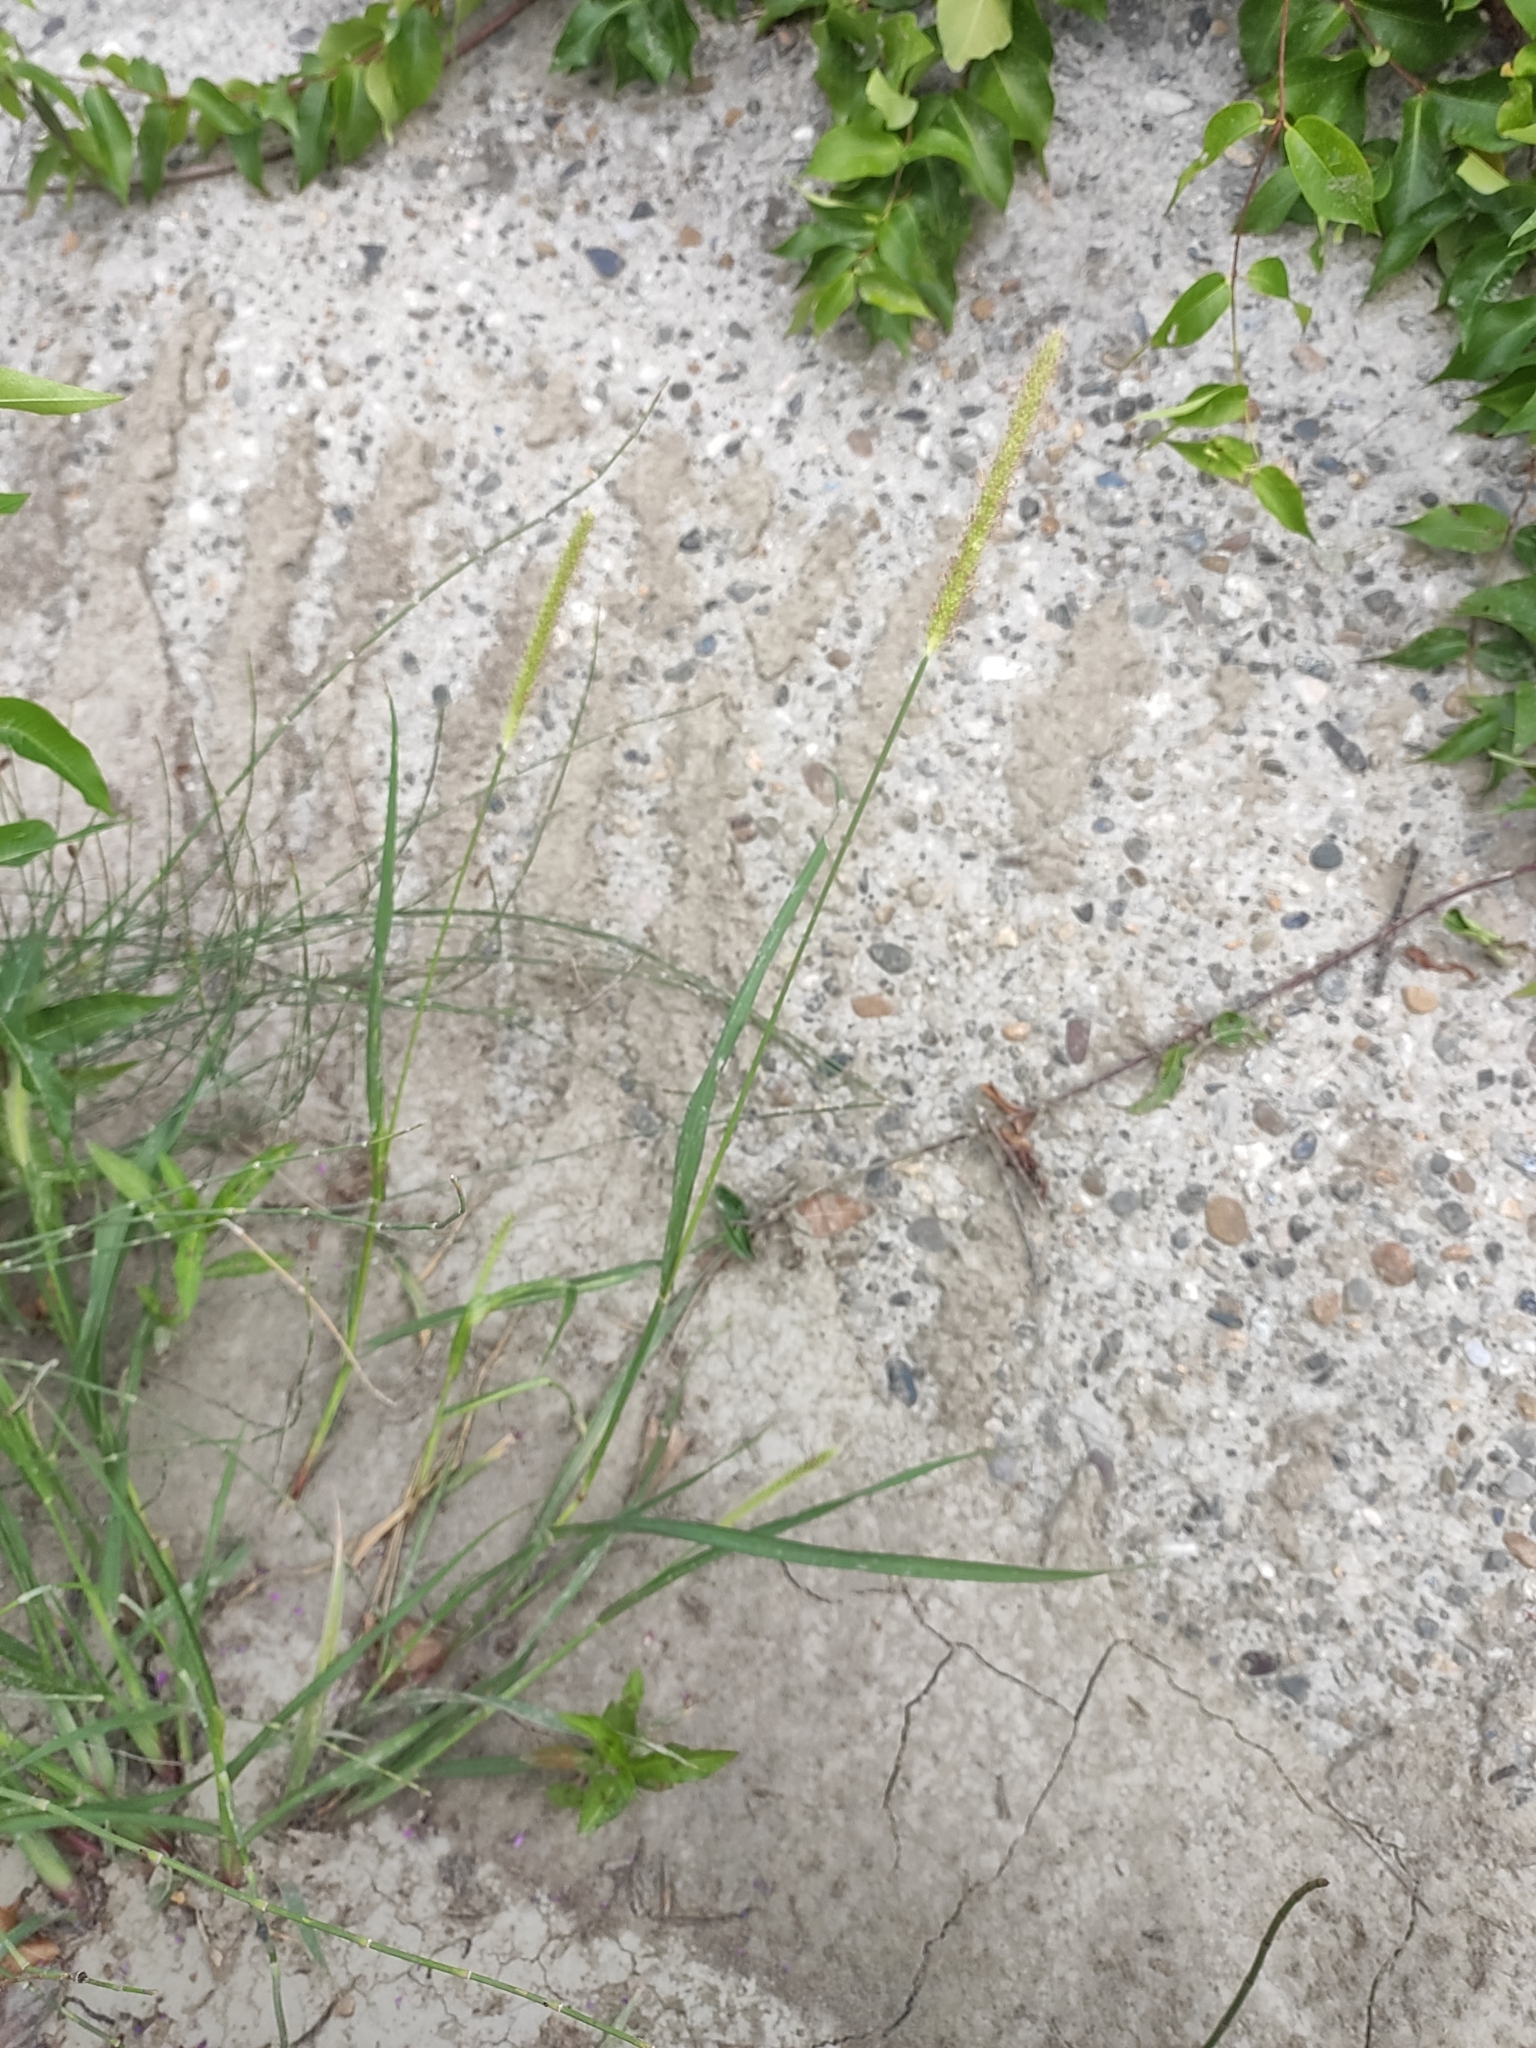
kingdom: Plantae
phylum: Tracheophyta
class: Liliopsida
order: Poales
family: Poaceae
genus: Setaria
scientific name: Setaria pumila
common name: Yellow bristle-grass
